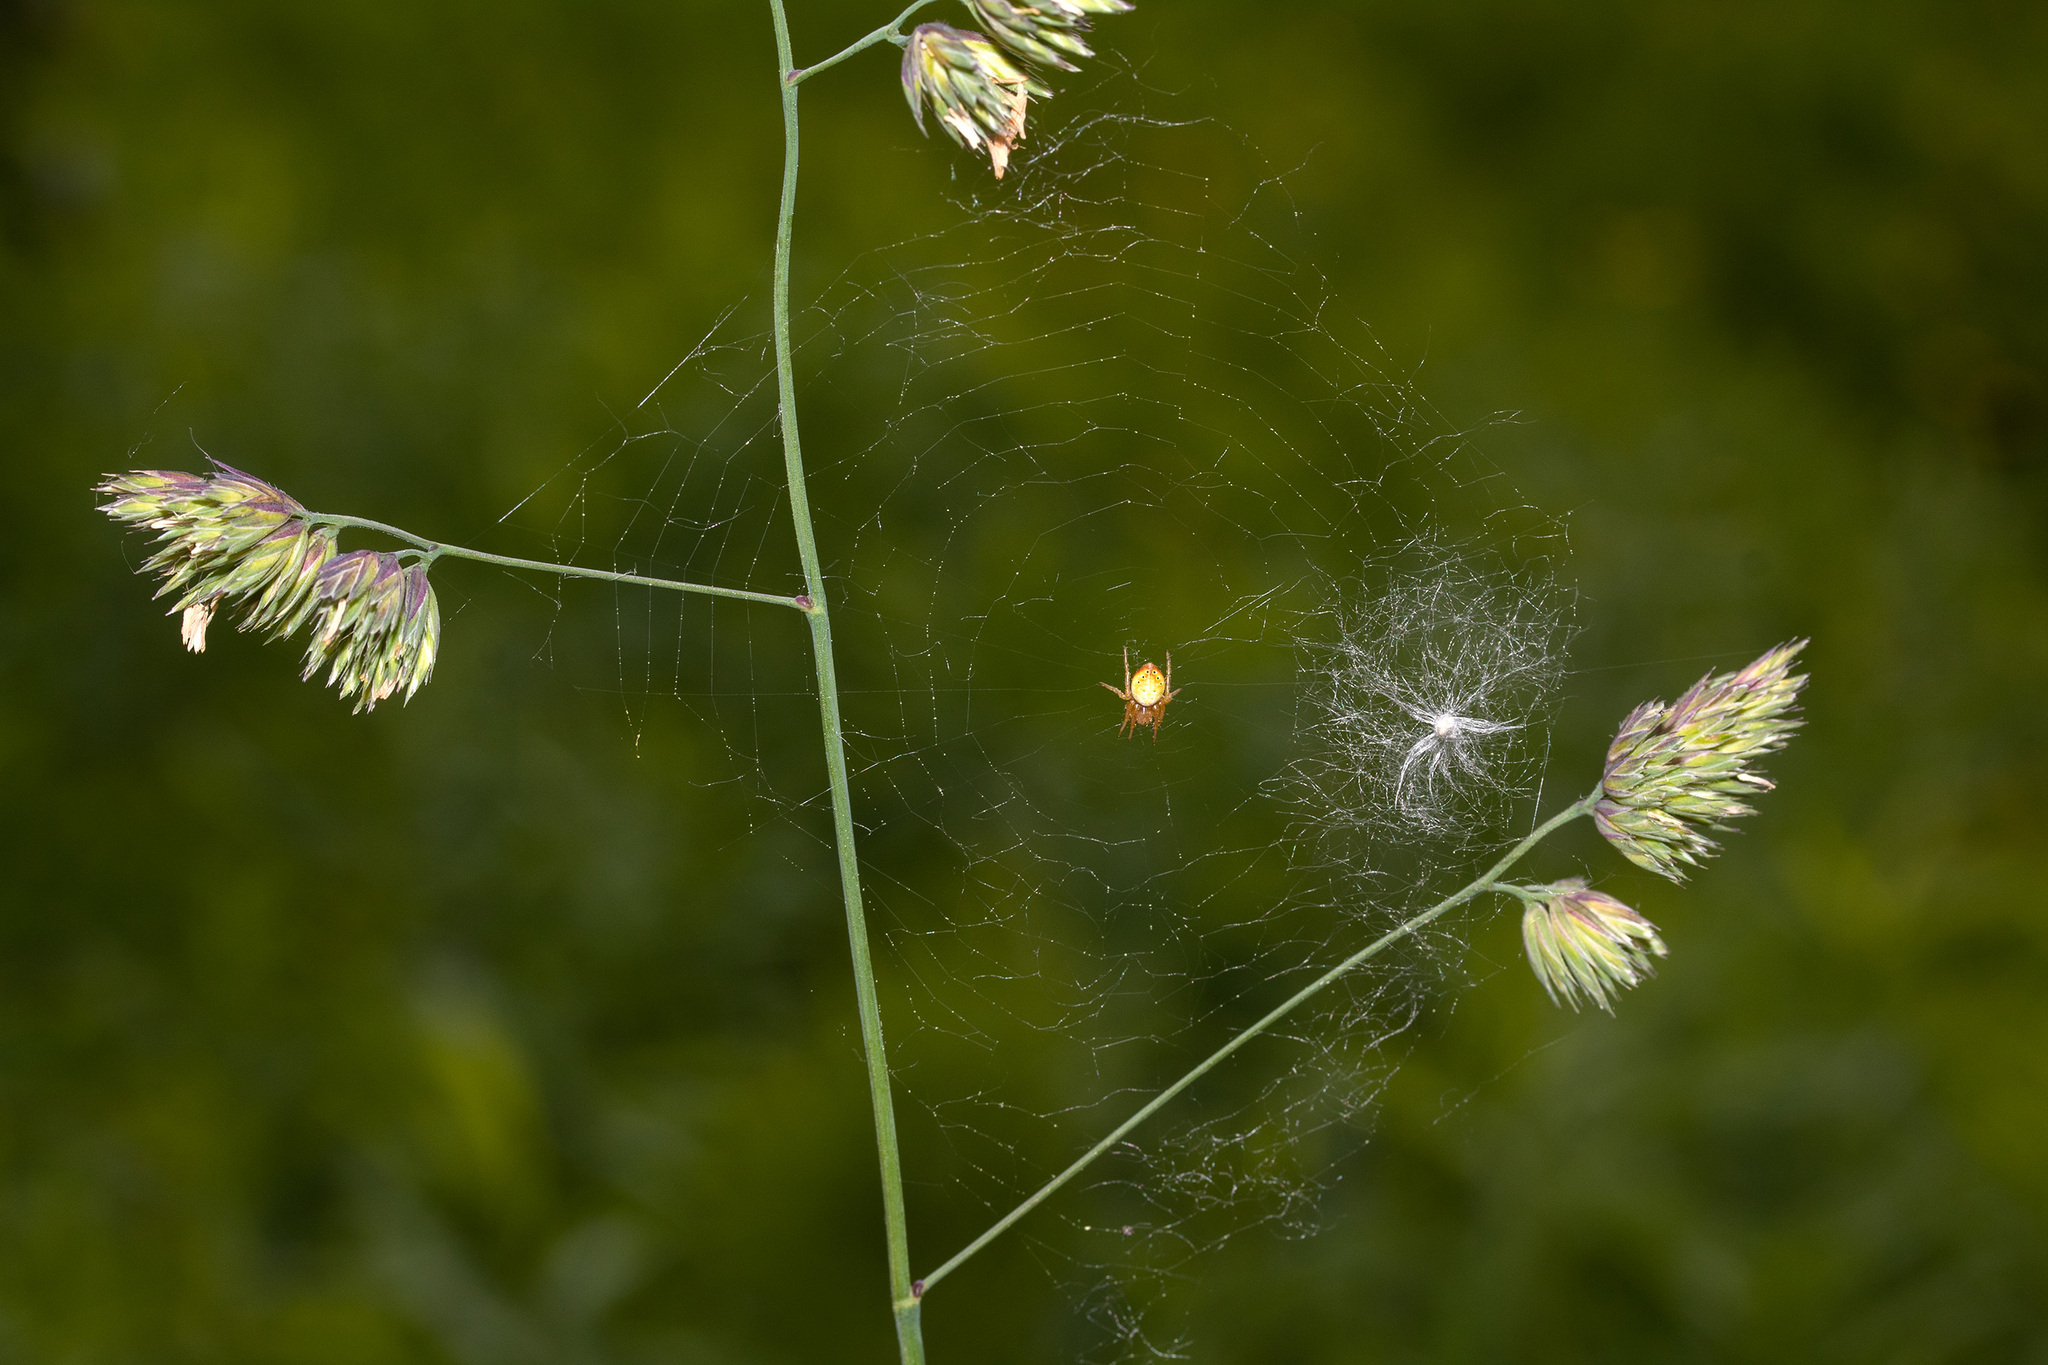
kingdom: Animalia
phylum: Arthropoda
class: Arachnida
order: Araneae
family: Araneidae
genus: Araniella
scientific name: Araniella displicata
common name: Sixspotted orb weaver
